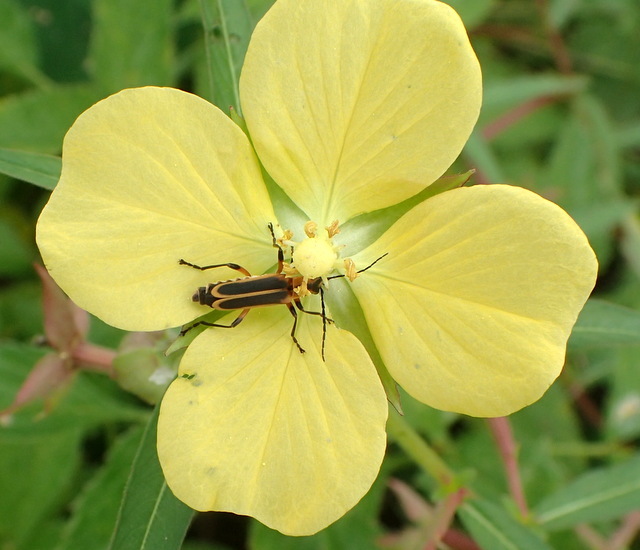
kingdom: Animalia
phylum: Arthropoda
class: Insecta
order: Coleoptera
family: Cantharidae
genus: Chauliognathus
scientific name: Chauliognathus marginatus
